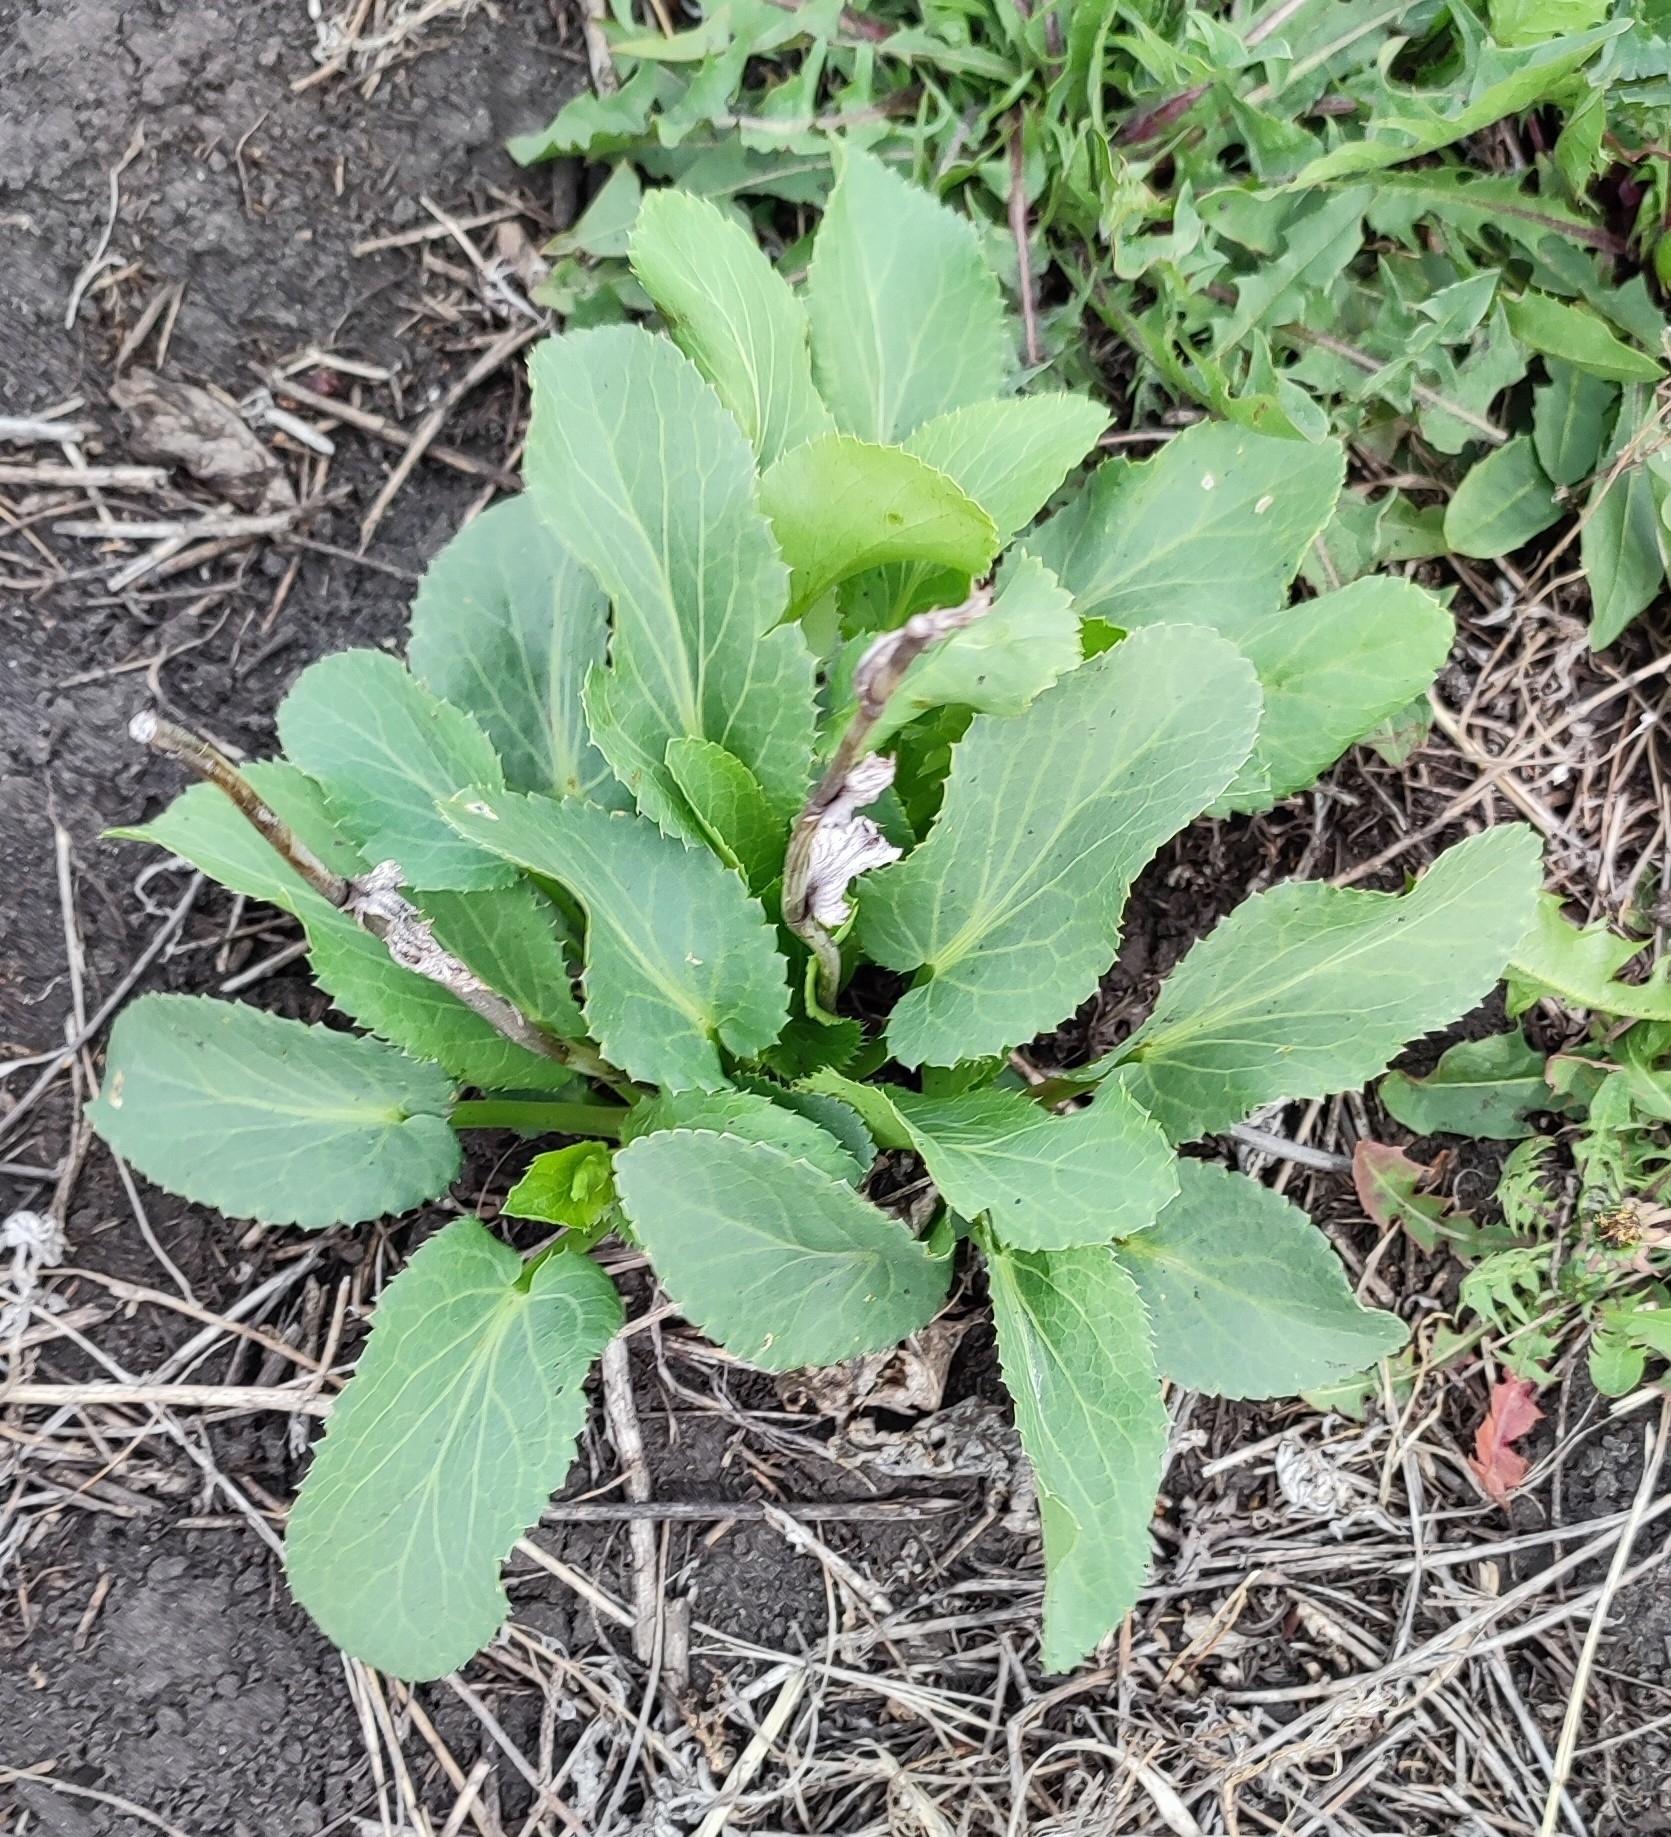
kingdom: Plantae
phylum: Tracheophyta
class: Magnoliopsida
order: Apiales
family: Apiaceae
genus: Eryngium
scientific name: Eryngium planum
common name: Blue eryngo
